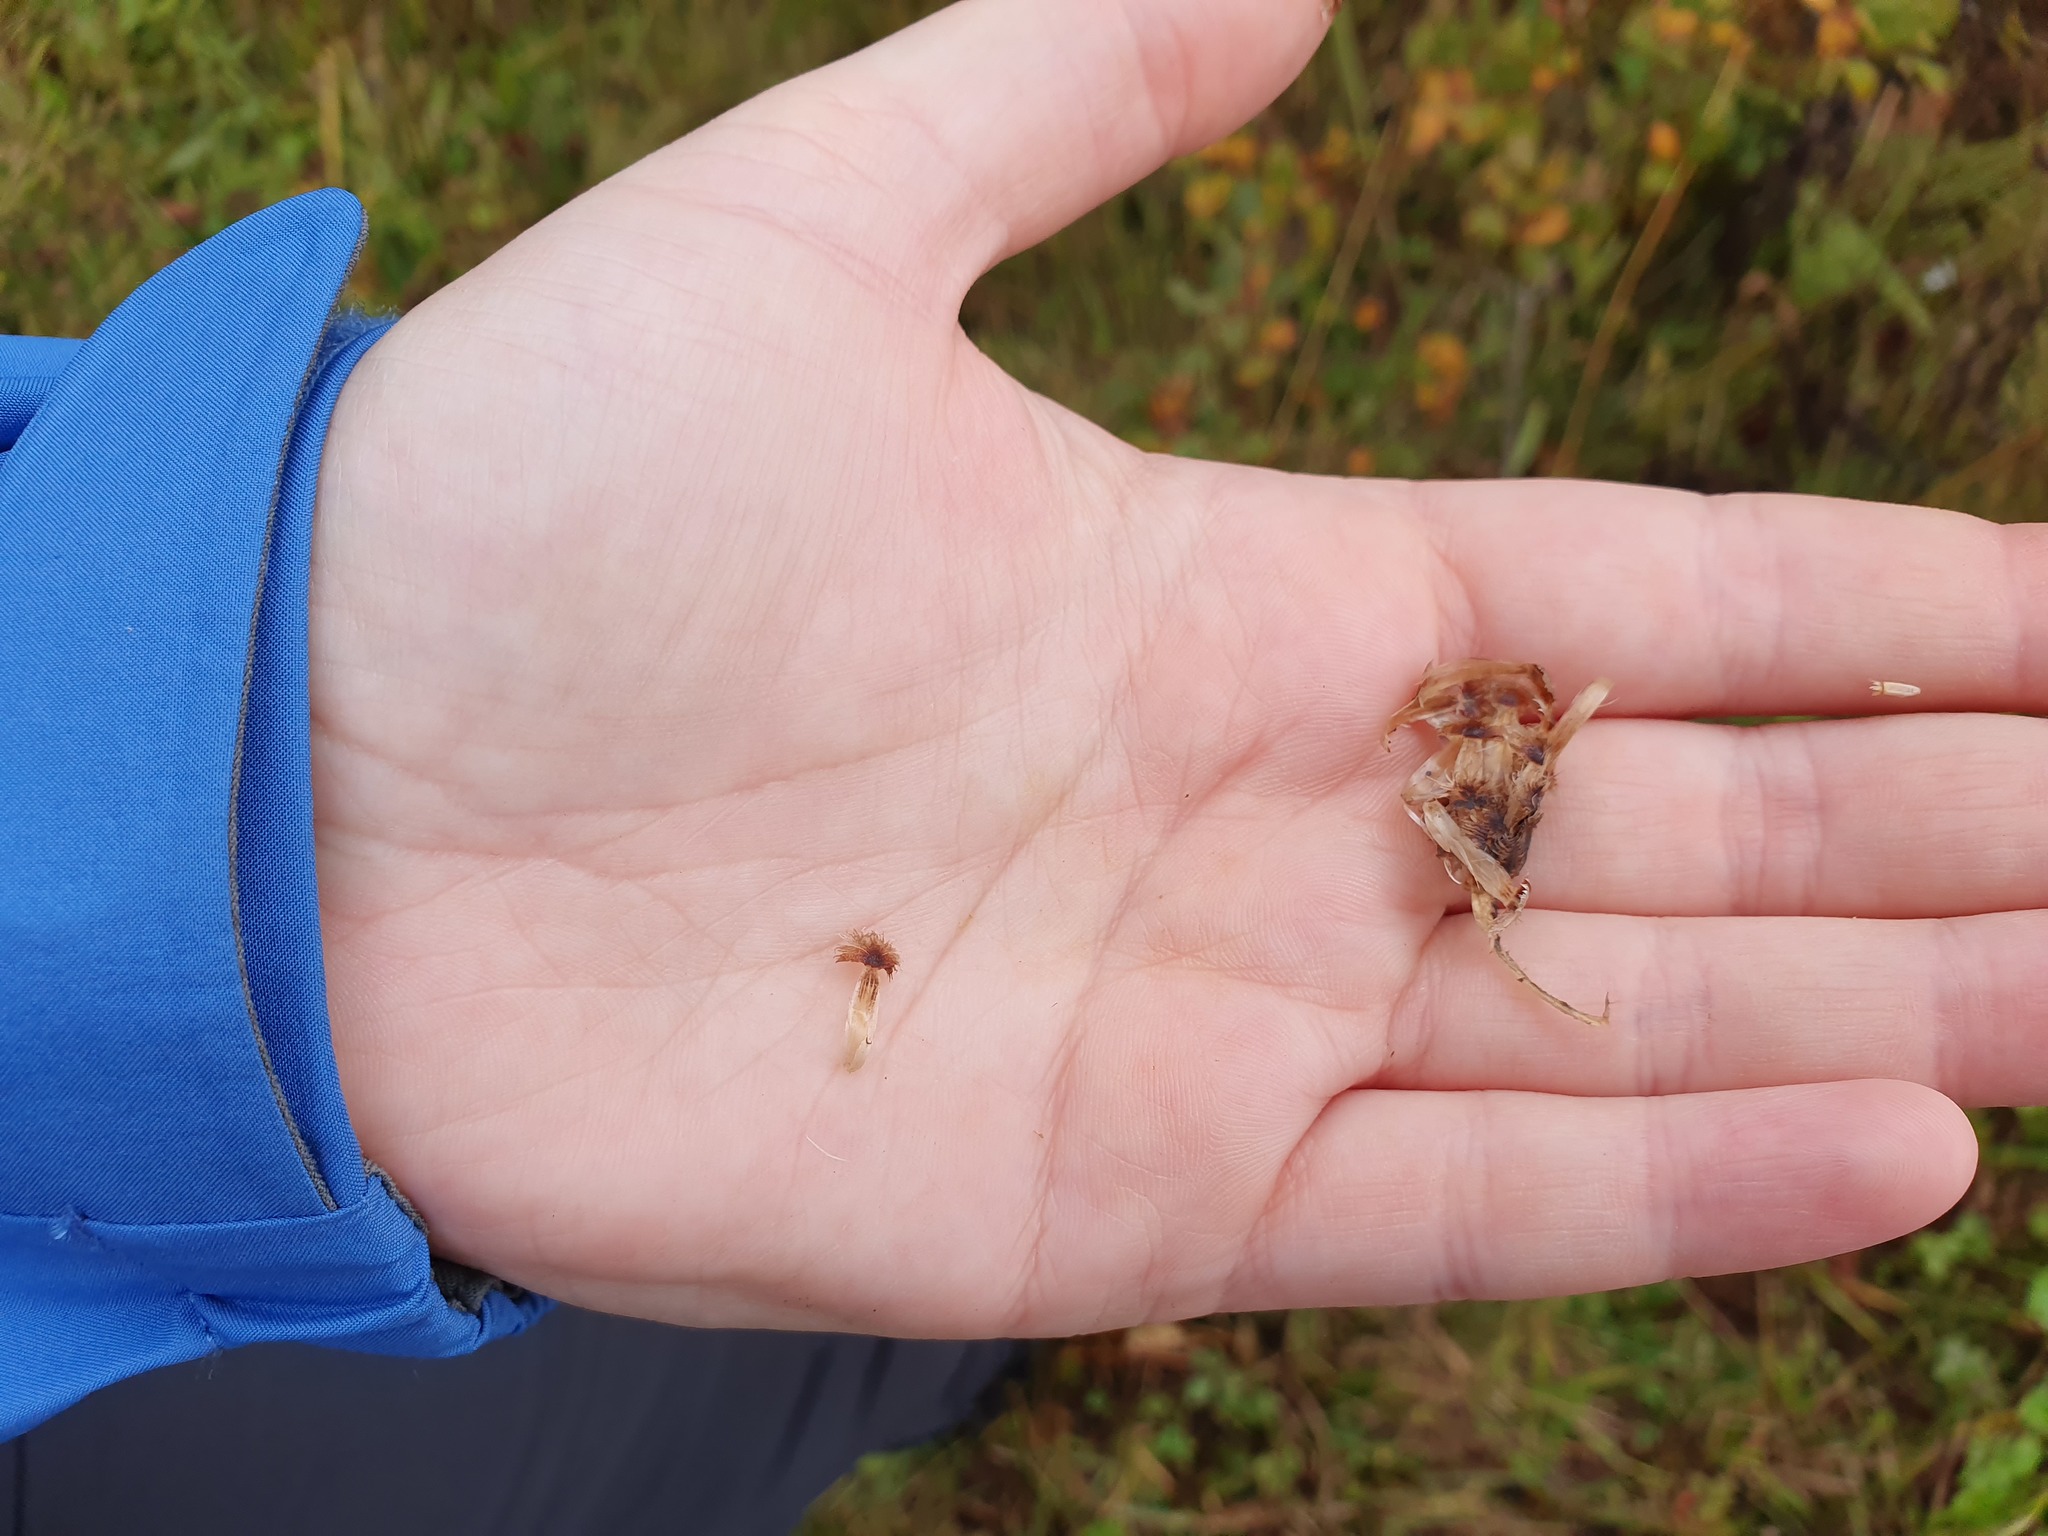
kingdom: Plantae
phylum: Tracheophyta
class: Magnoliopsida
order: Asterales
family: Asteraceae
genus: Centaurea
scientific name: Centaurea nigra
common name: Lesser knapweed
